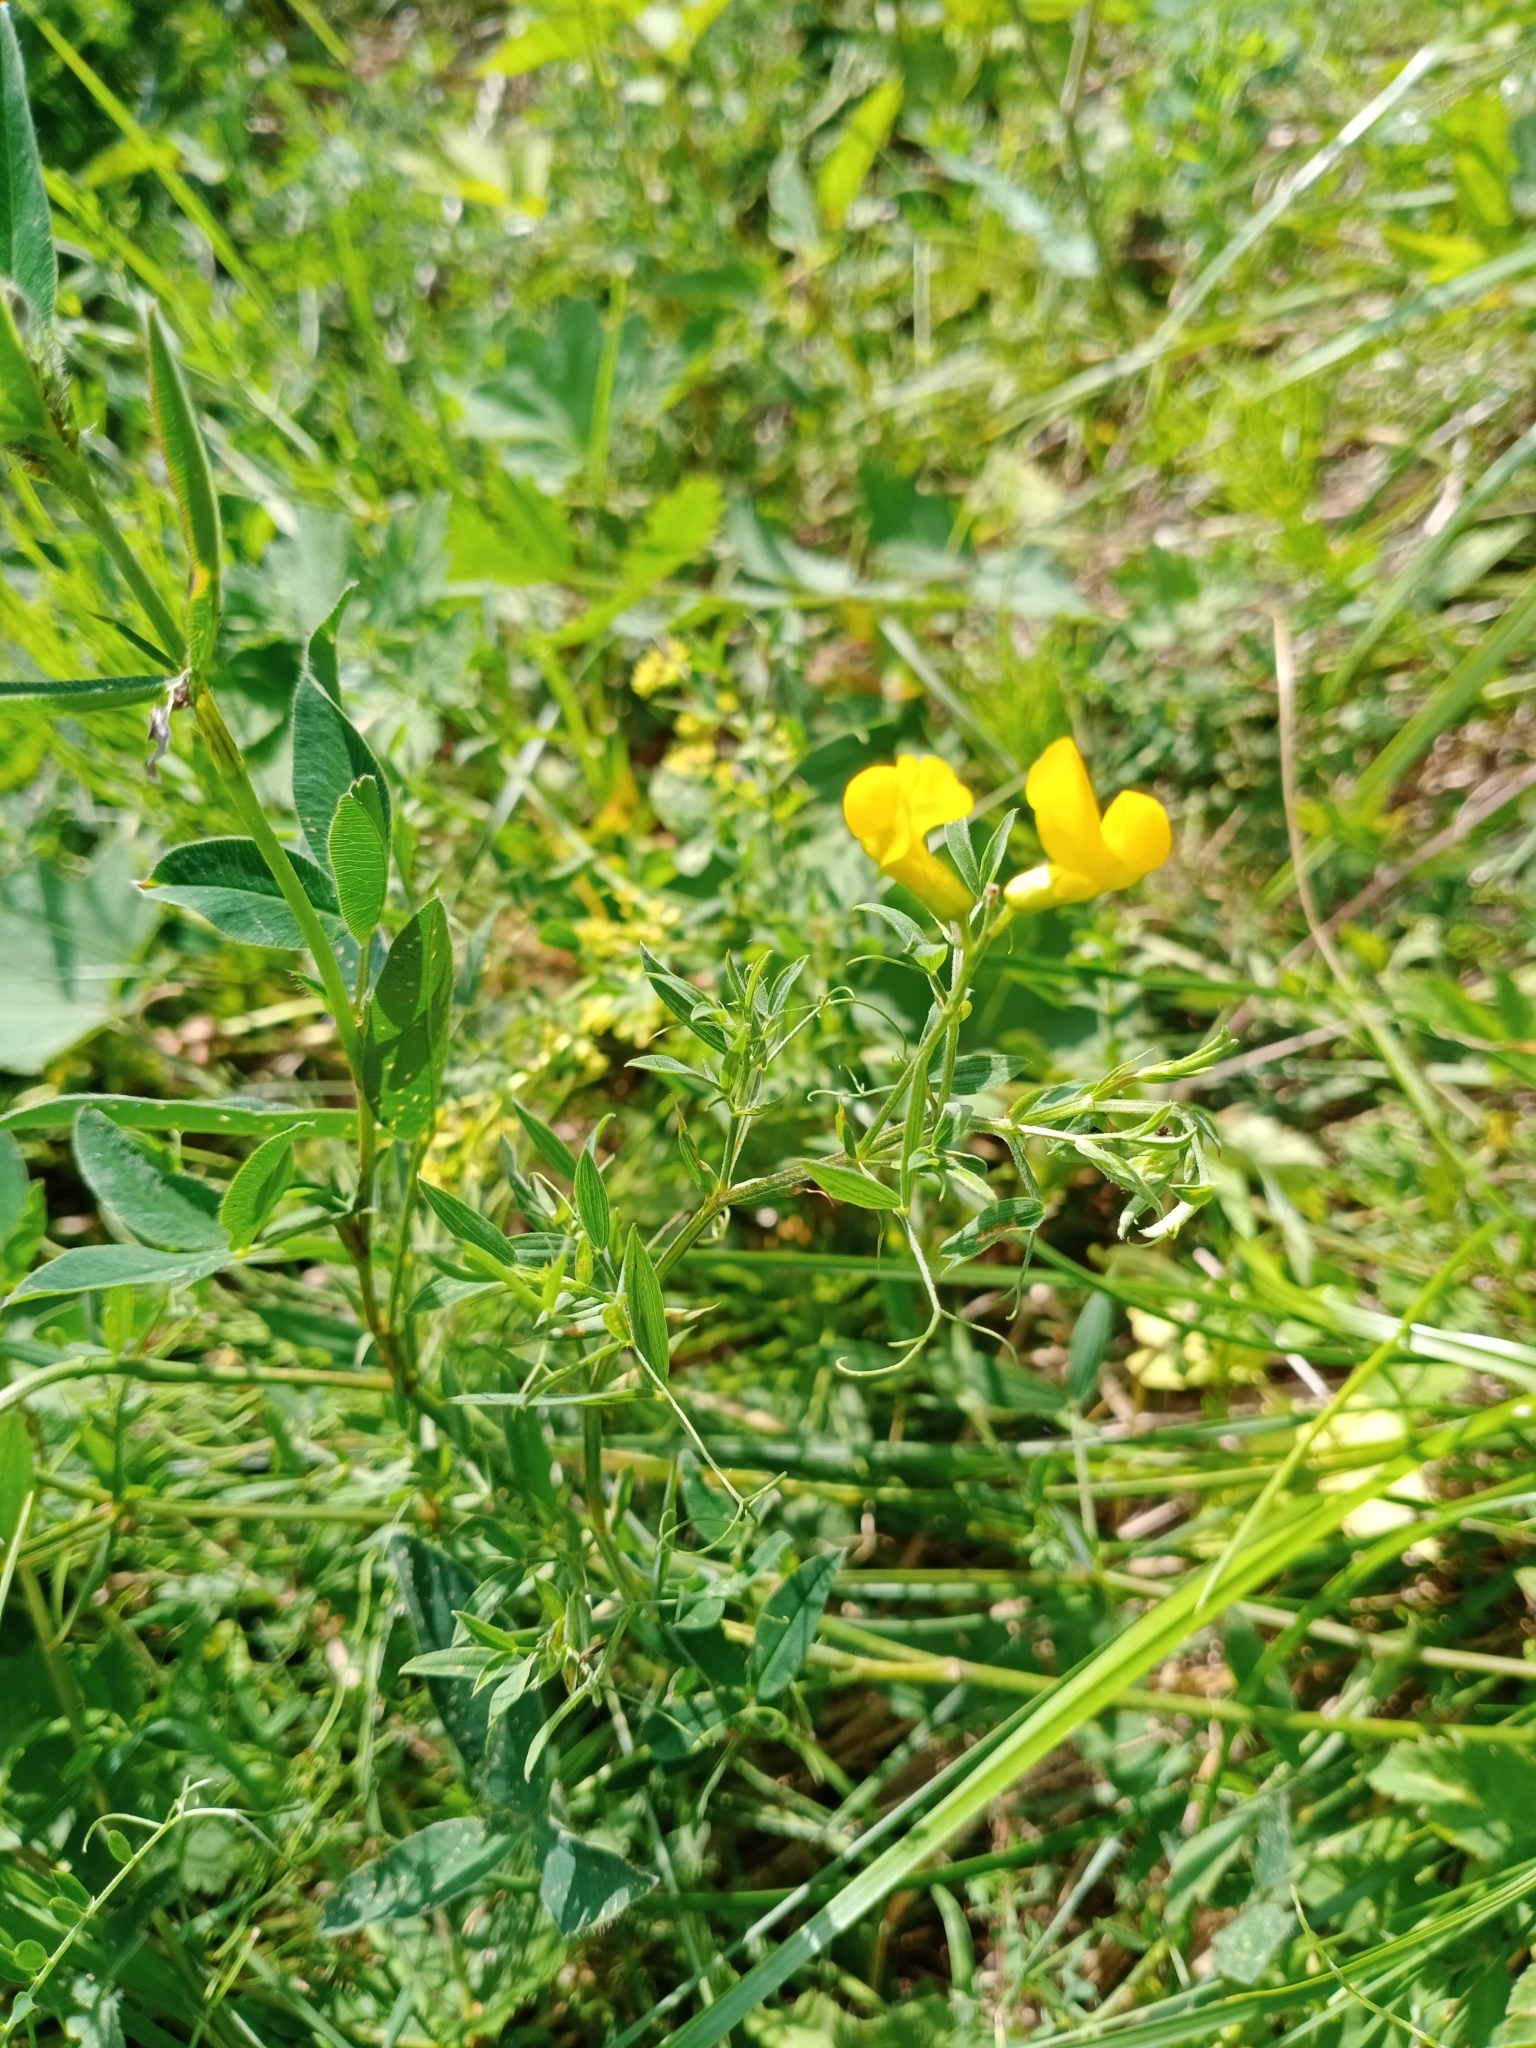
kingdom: Plantae
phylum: Tracheophyta
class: Magnoliopsida
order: Fabales
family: Fabaceae
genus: Lathyrus
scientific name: Lathyrus pratensis
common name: Meadow vetchling
